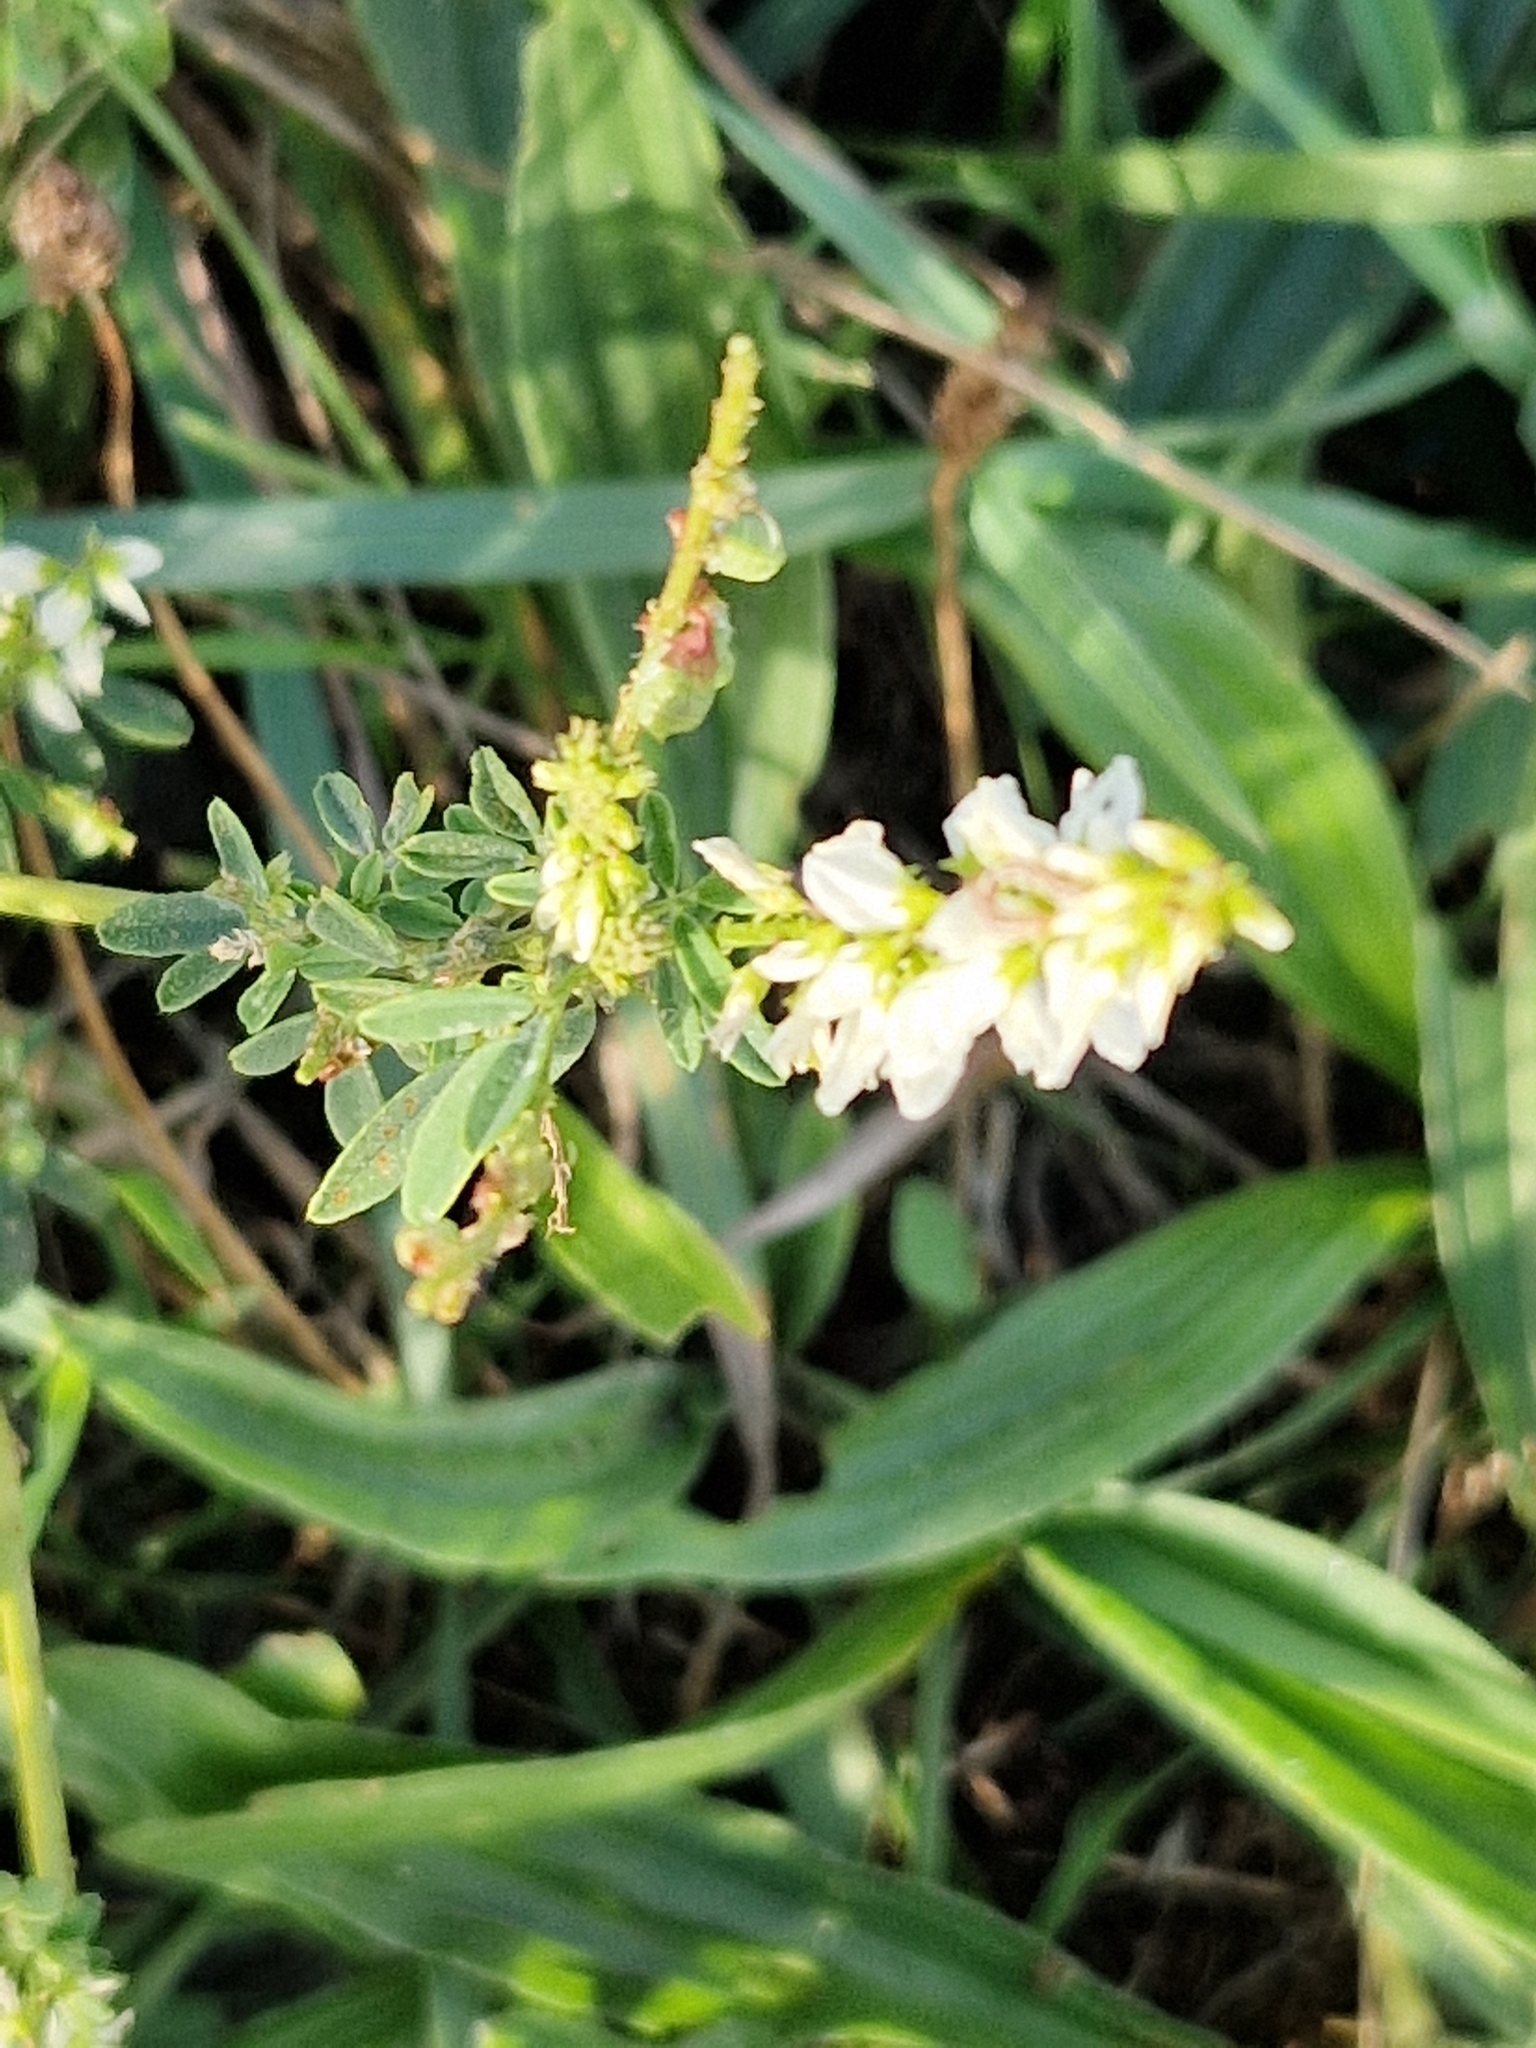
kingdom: Plantae
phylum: Tracheophyta
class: Magnoliopsida
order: Fabales
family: Fabaceae
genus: Melilotus
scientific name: Melilotus albus
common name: White melilot
